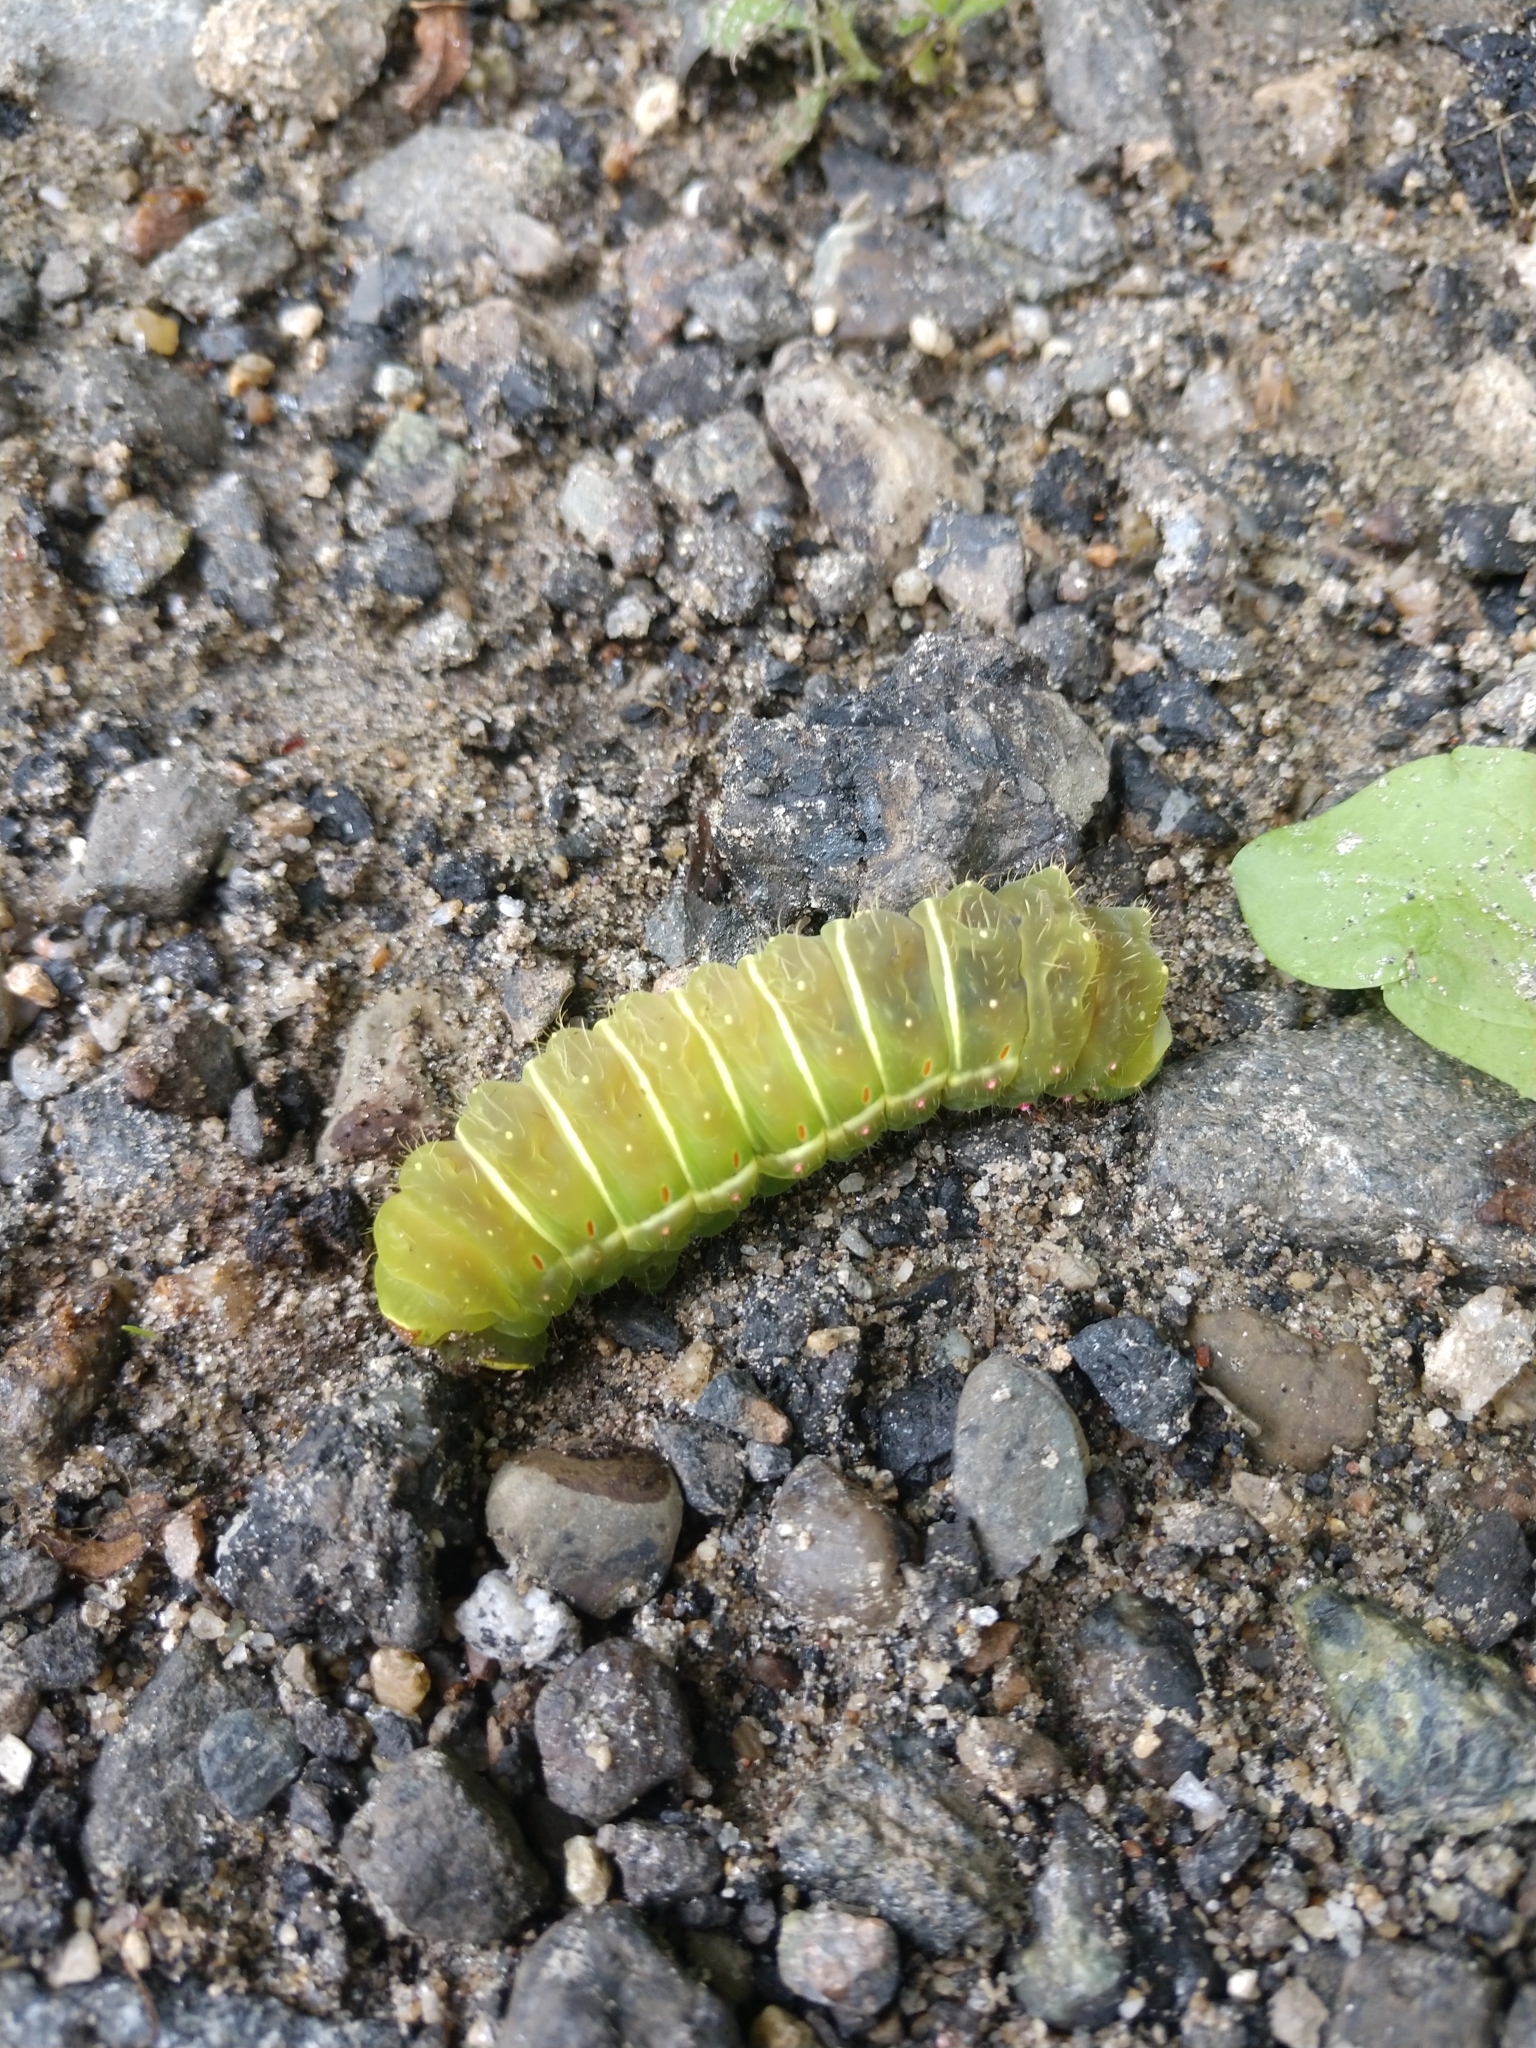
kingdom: Animalia
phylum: Arthropoda
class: Insecta
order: Lepidoptera
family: Saturniidae
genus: Actias
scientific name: Actias luna
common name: Luna moth
